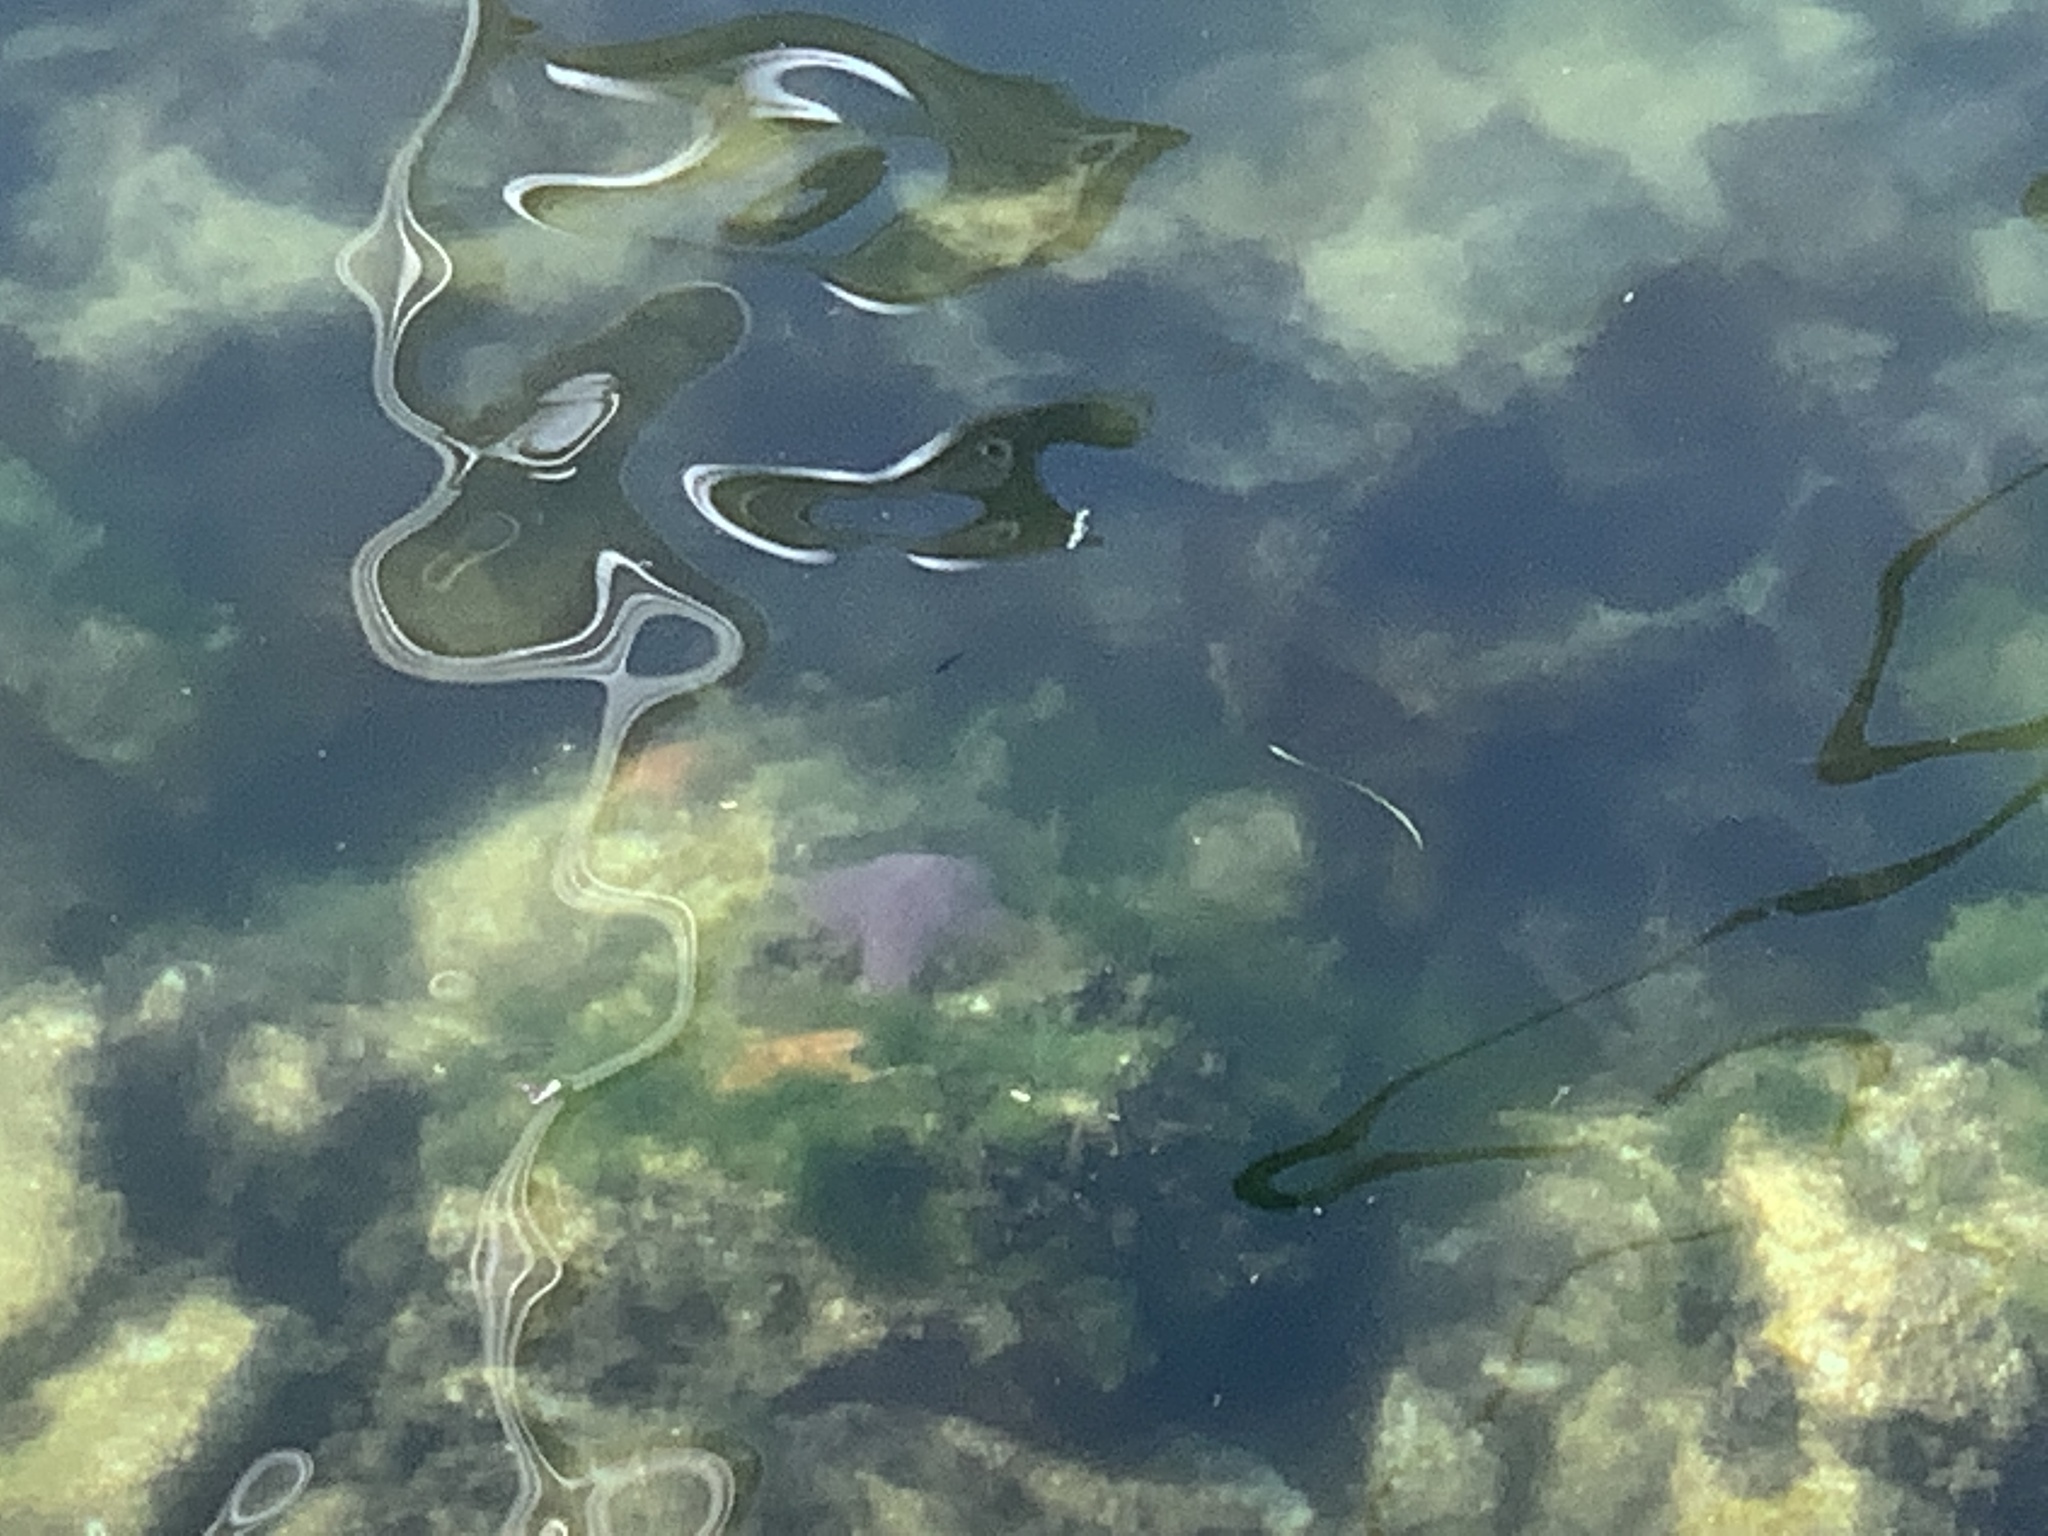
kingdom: Animalia
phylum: Echinodermata
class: Asteroidea
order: Forcipulatida
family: Asteriidae
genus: Pisaster
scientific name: Pisaster ochraceus
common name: Ochre stars
